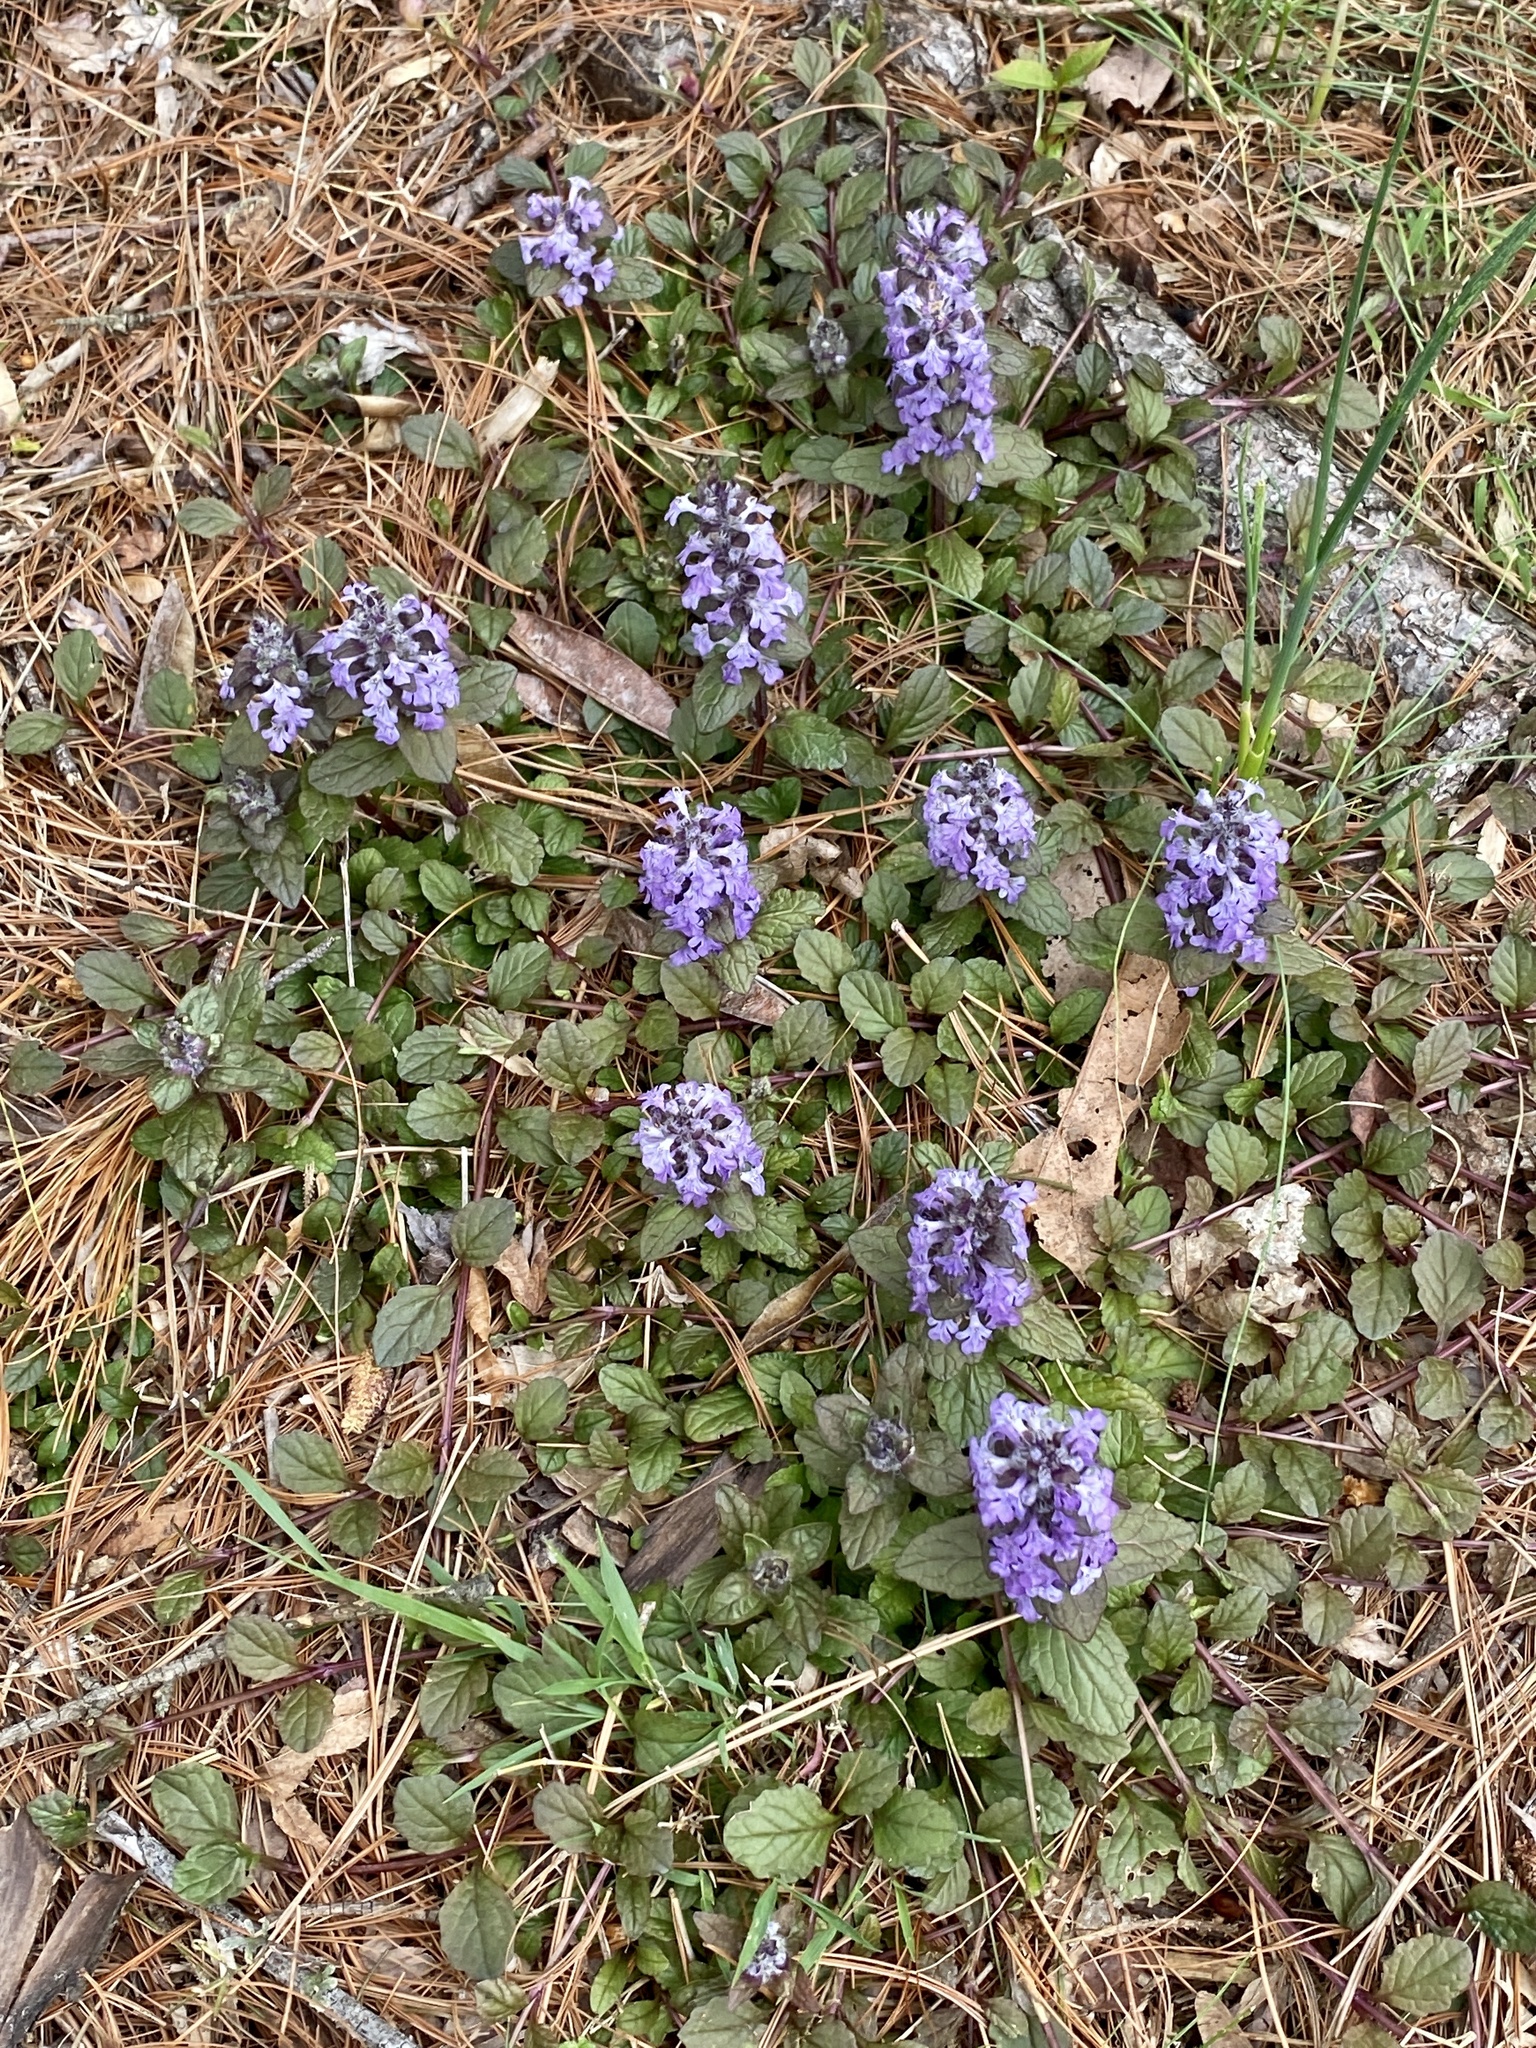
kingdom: Plantae
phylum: Tracheophyta
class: Magnoliopsida
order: Lamiales
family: Lamiaceae
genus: Ajuga
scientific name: Ajuga reptans
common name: Bugle
